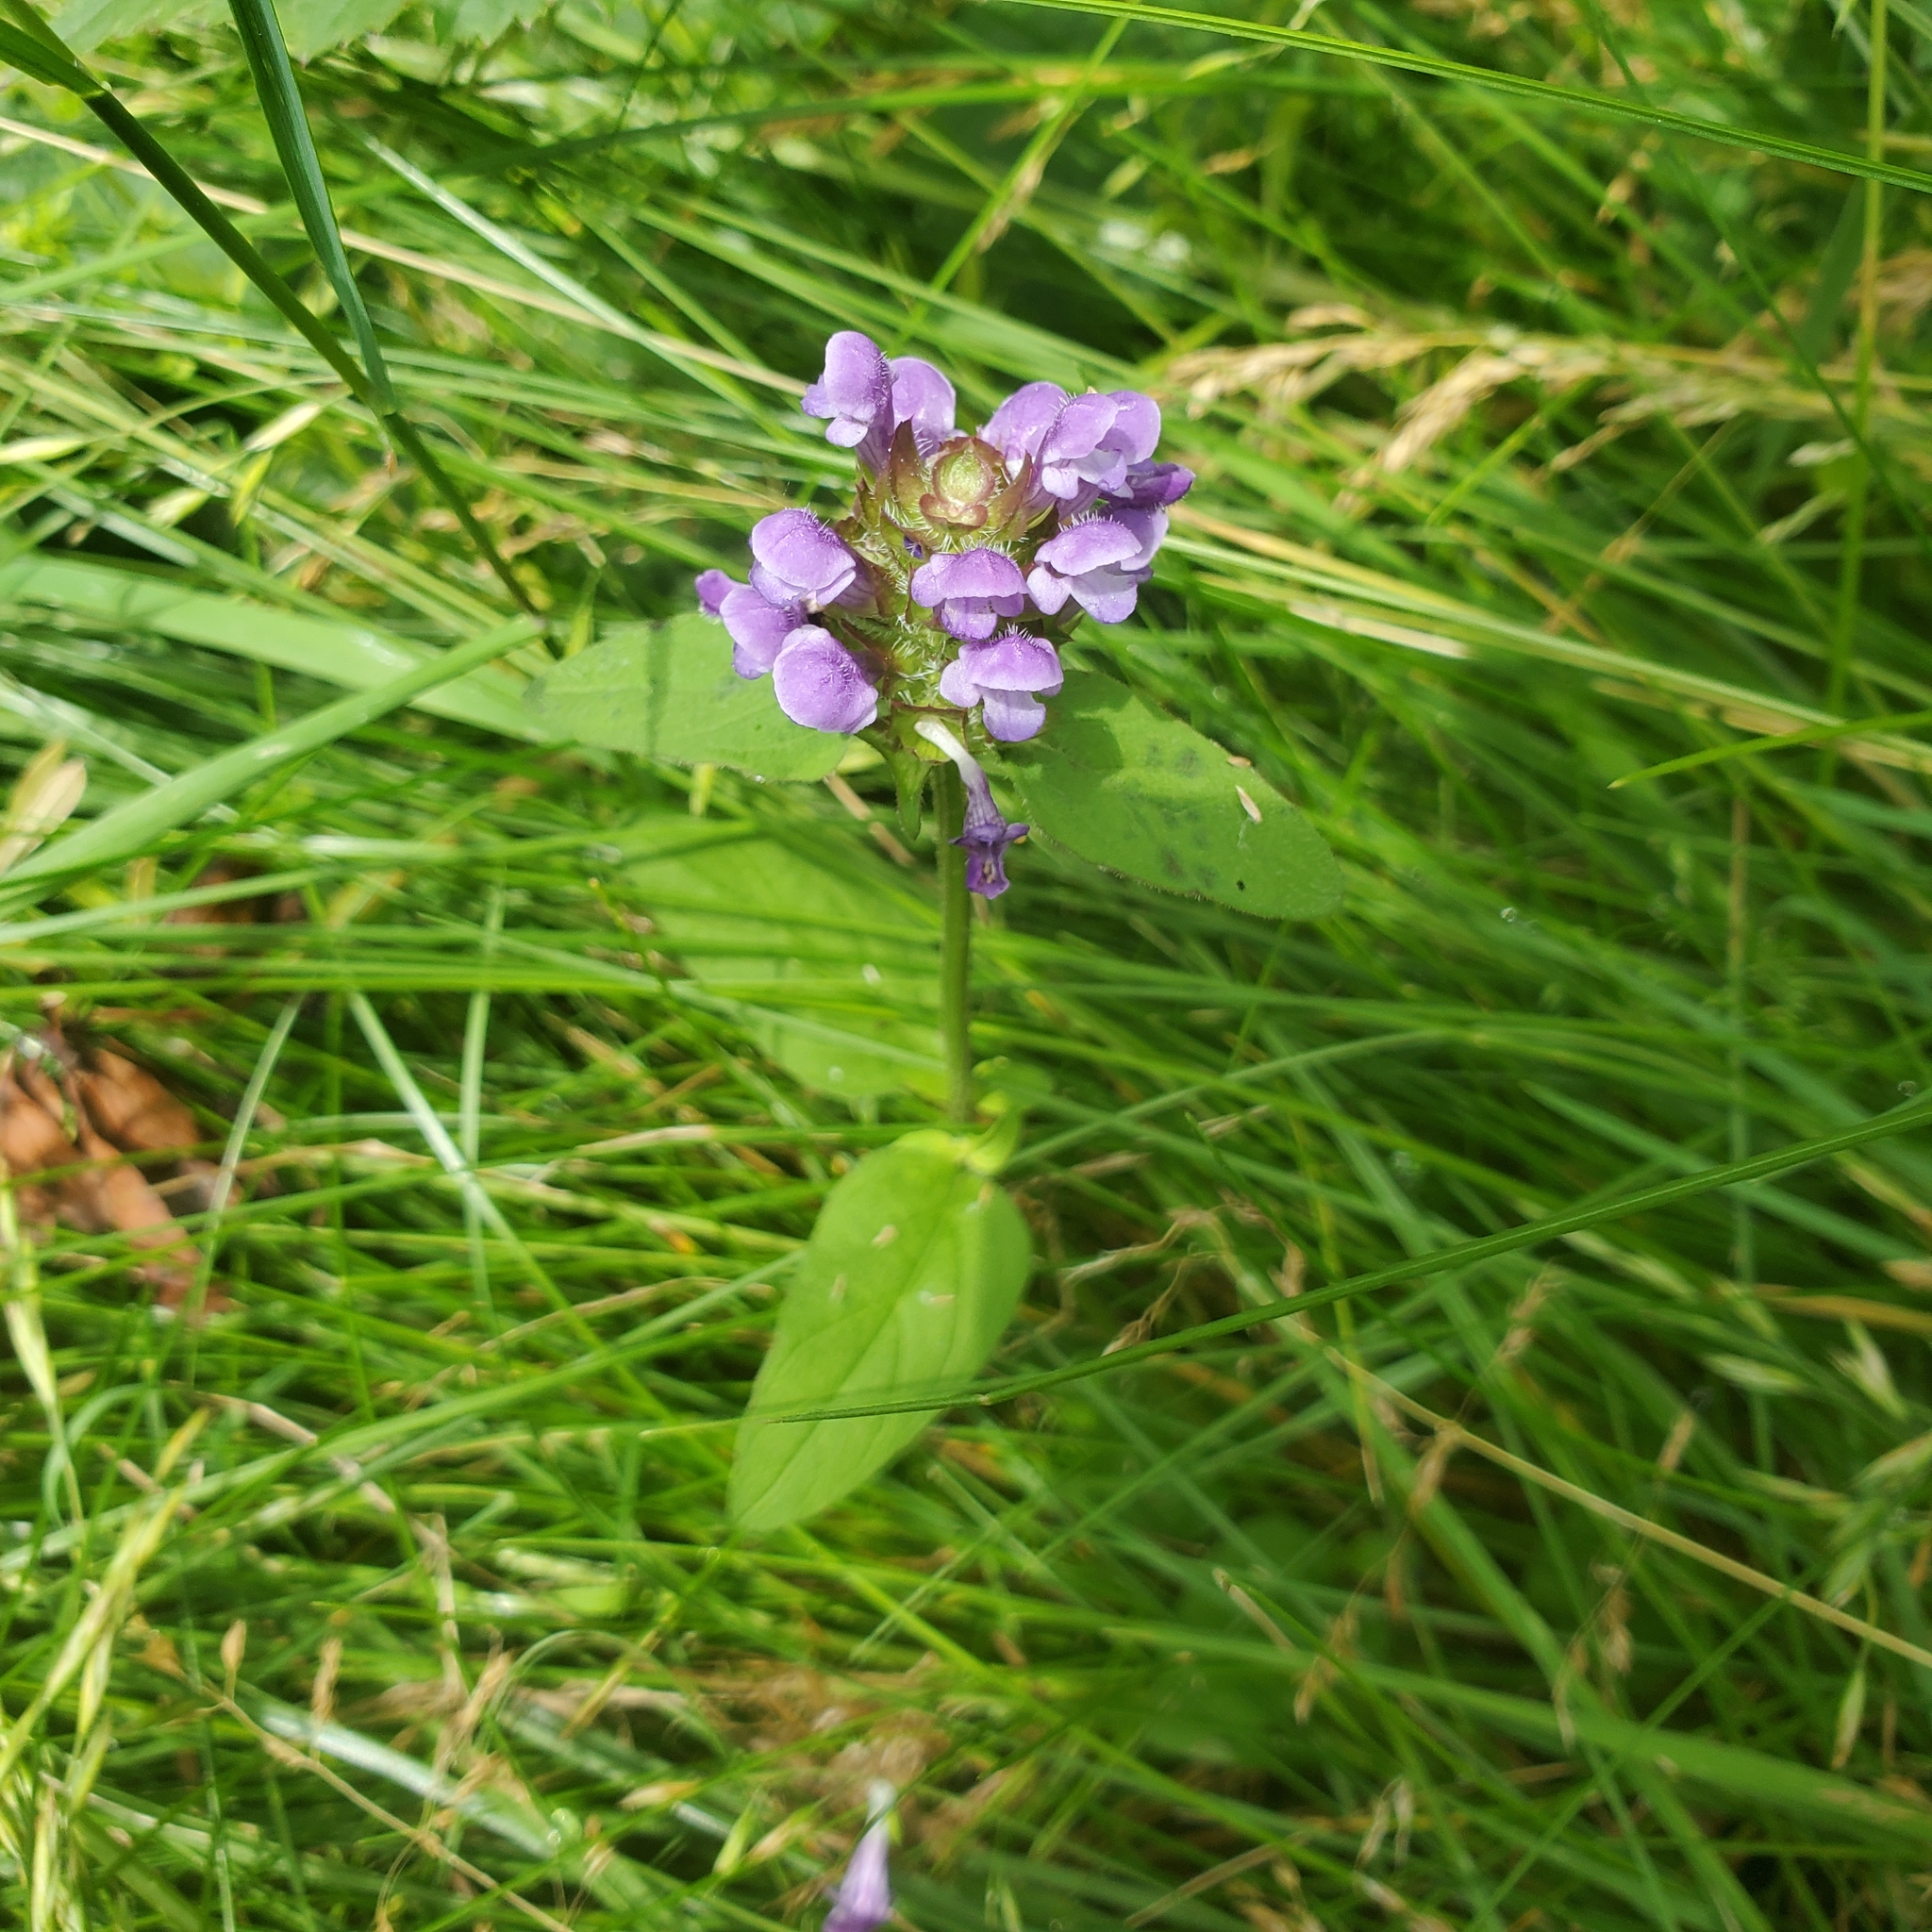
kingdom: Plantae
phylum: Tracheophyta
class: Magnoliopsida
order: Lamiales
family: Lamiaceae
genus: Prunella
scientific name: Prunella vulgaris
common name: Heal-all
